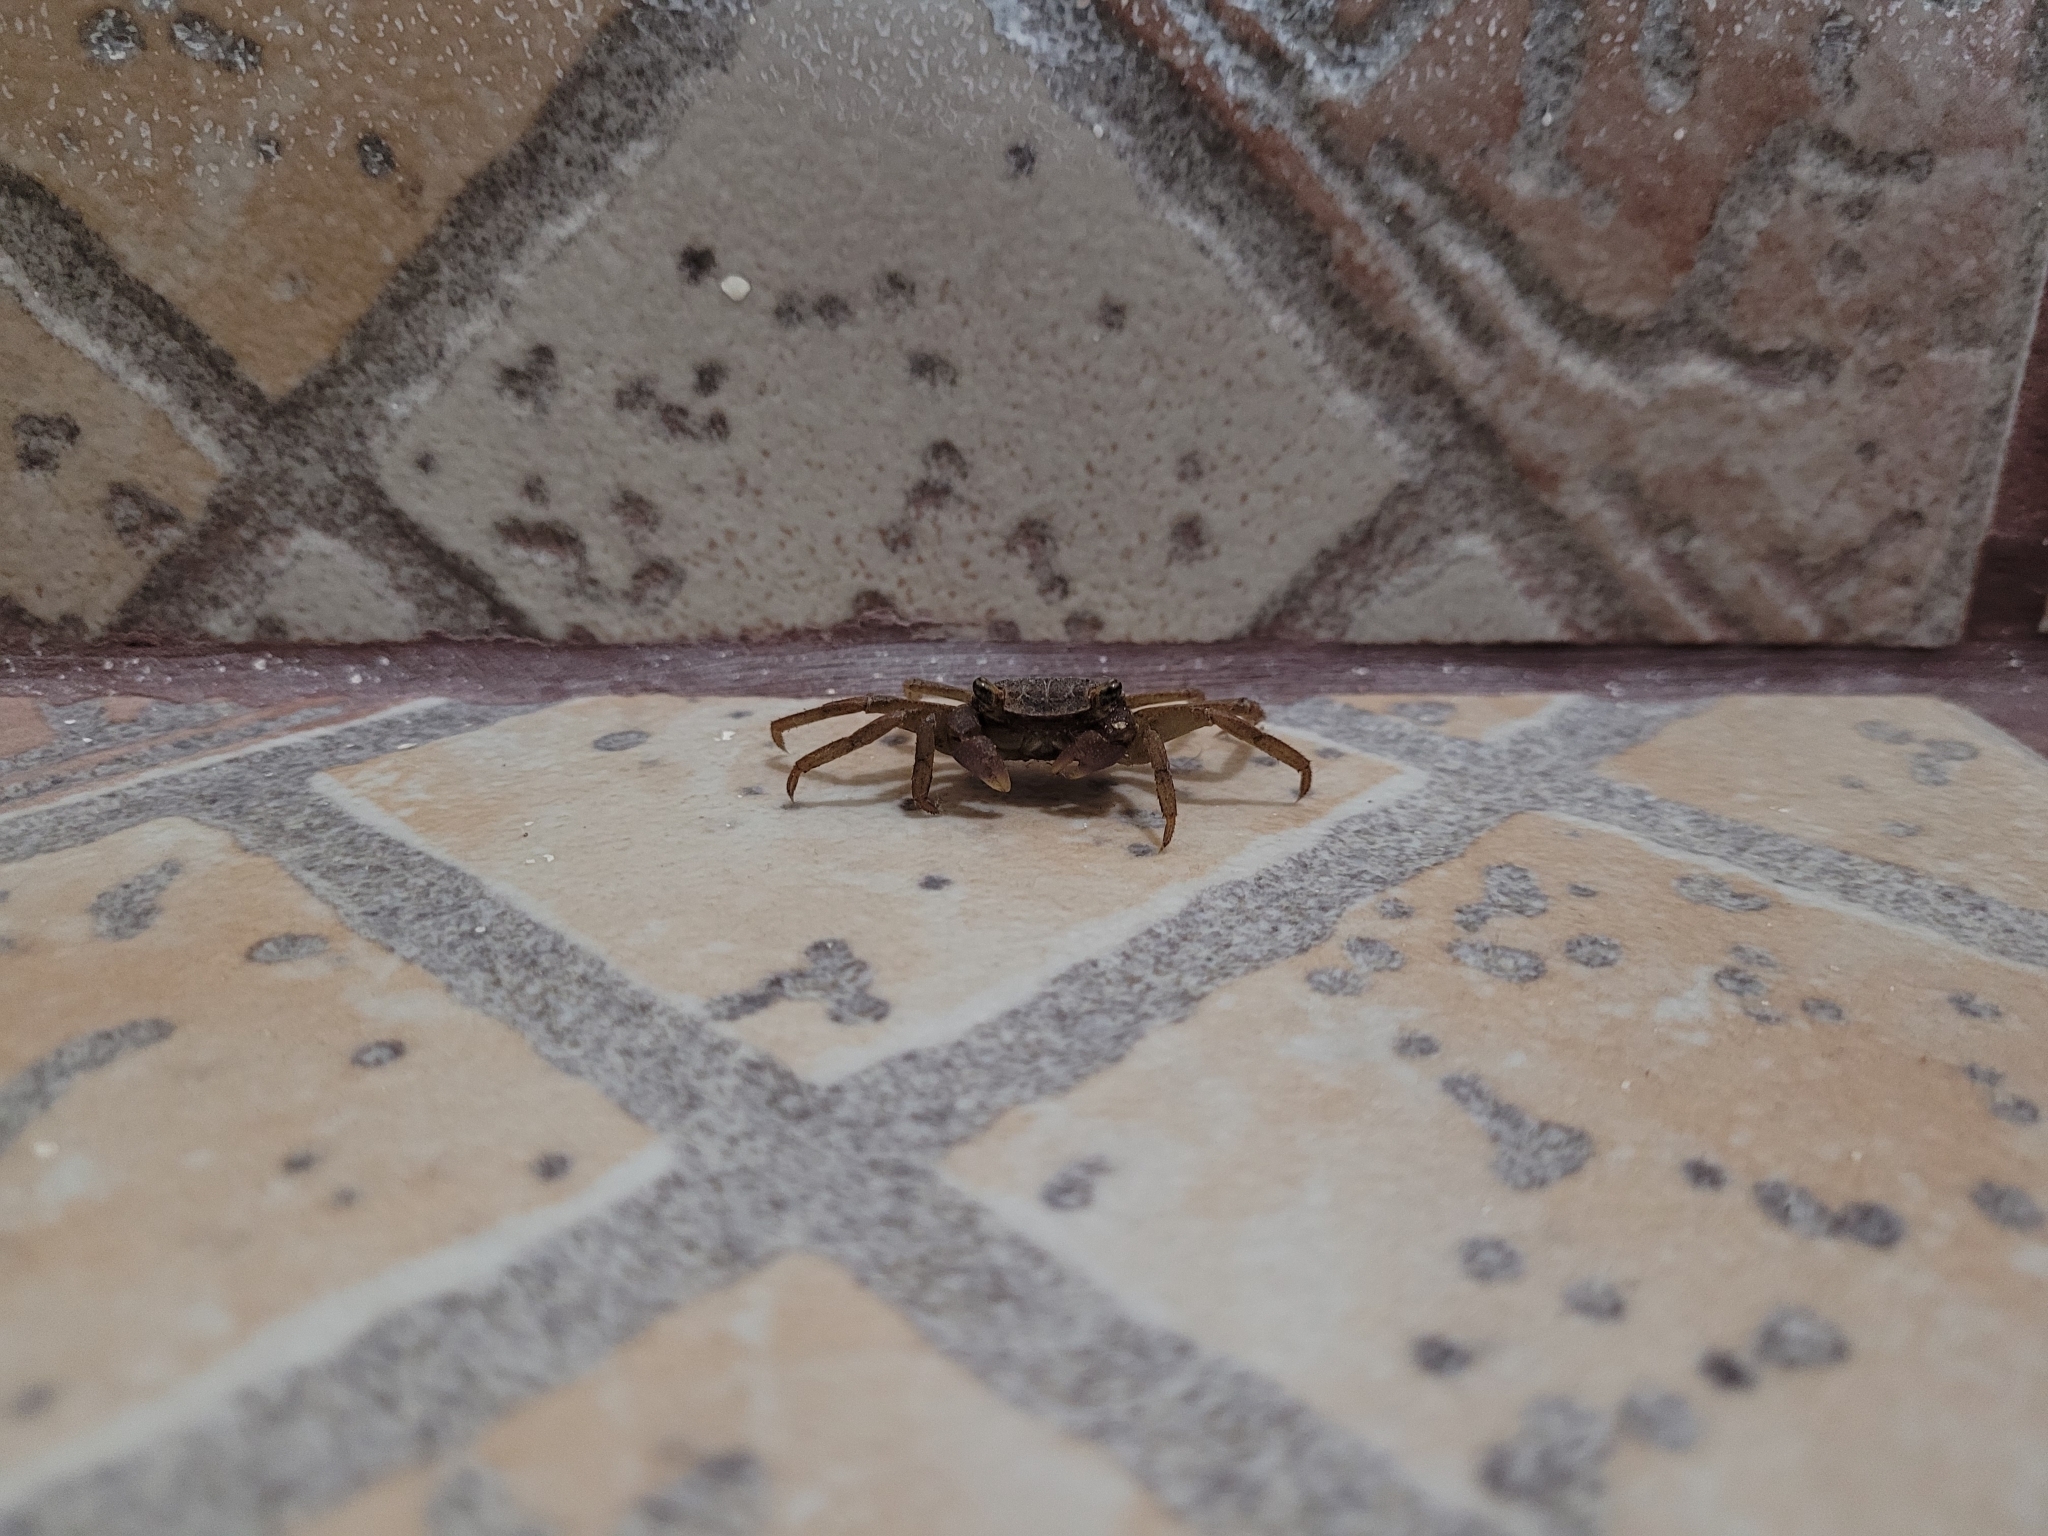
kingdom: Animalia
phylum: Arthropoda
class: Malacostraca
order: Decapoda
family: Sesarmidae
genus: Armases
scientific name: Armases angustipes
